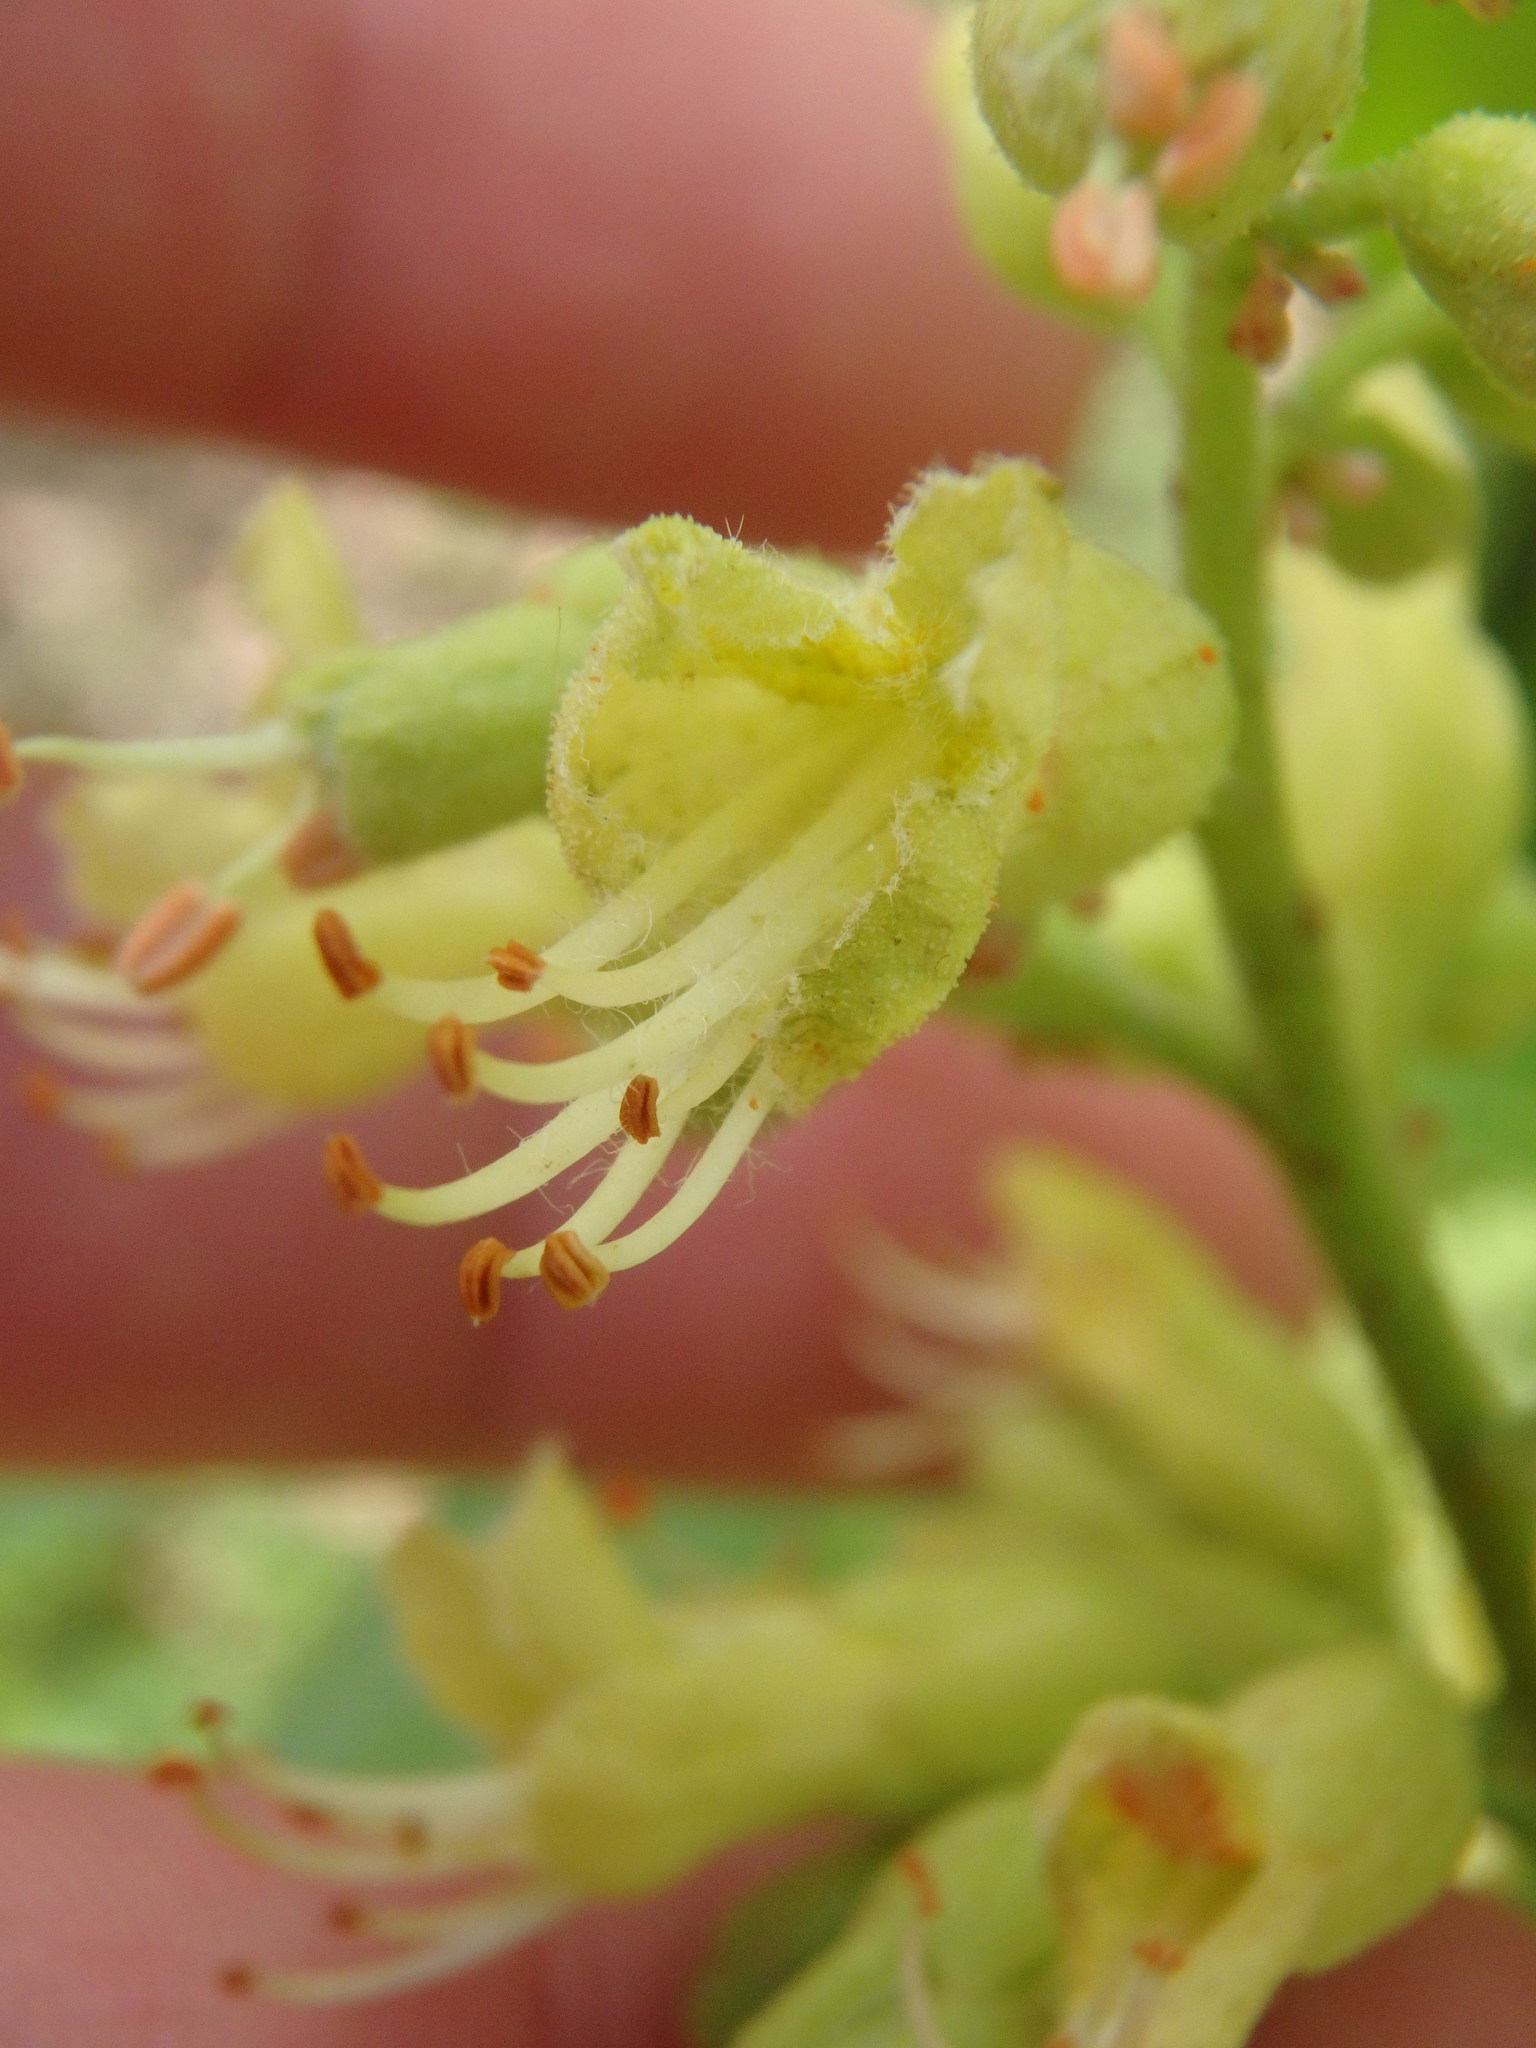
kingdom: Plantae
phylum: Tracheophyta
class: Magnoliopsida
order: Sapindales
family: Sapindaceae
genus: Aesculus
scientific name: Aesculus glabra
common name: Ohio buckeye
